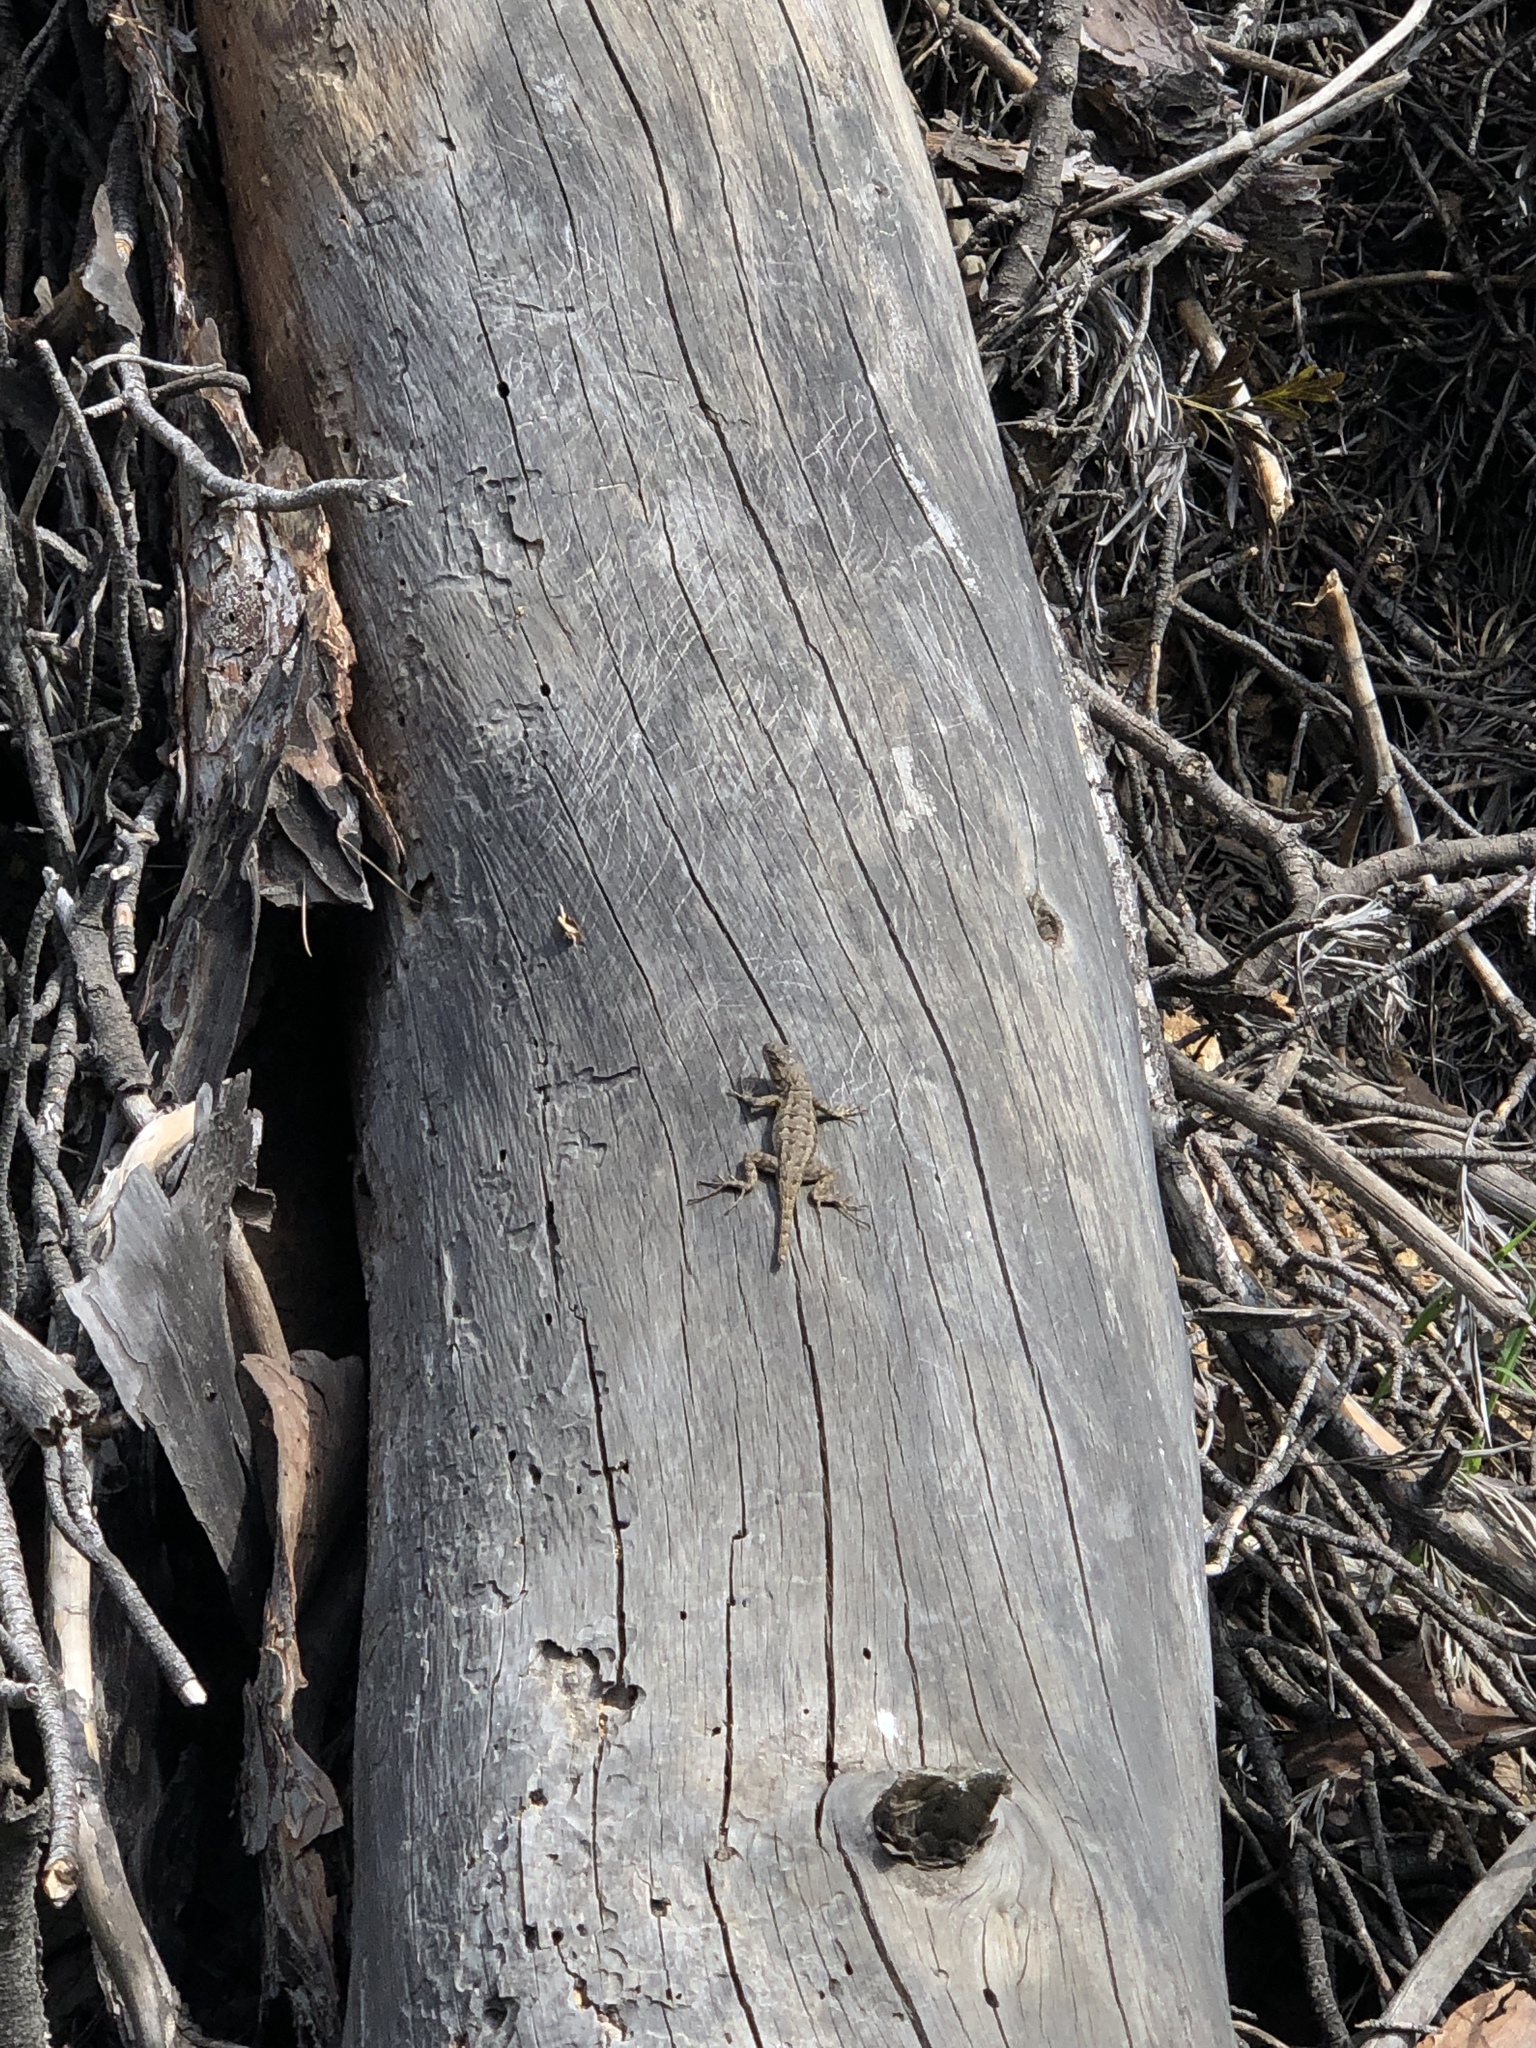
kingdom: Animalia
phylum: Chordata
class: Squamata
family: Phrynosomatidae
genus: Sceloporus
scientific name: Sceloporus occidentalis
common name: Western fence lizard
